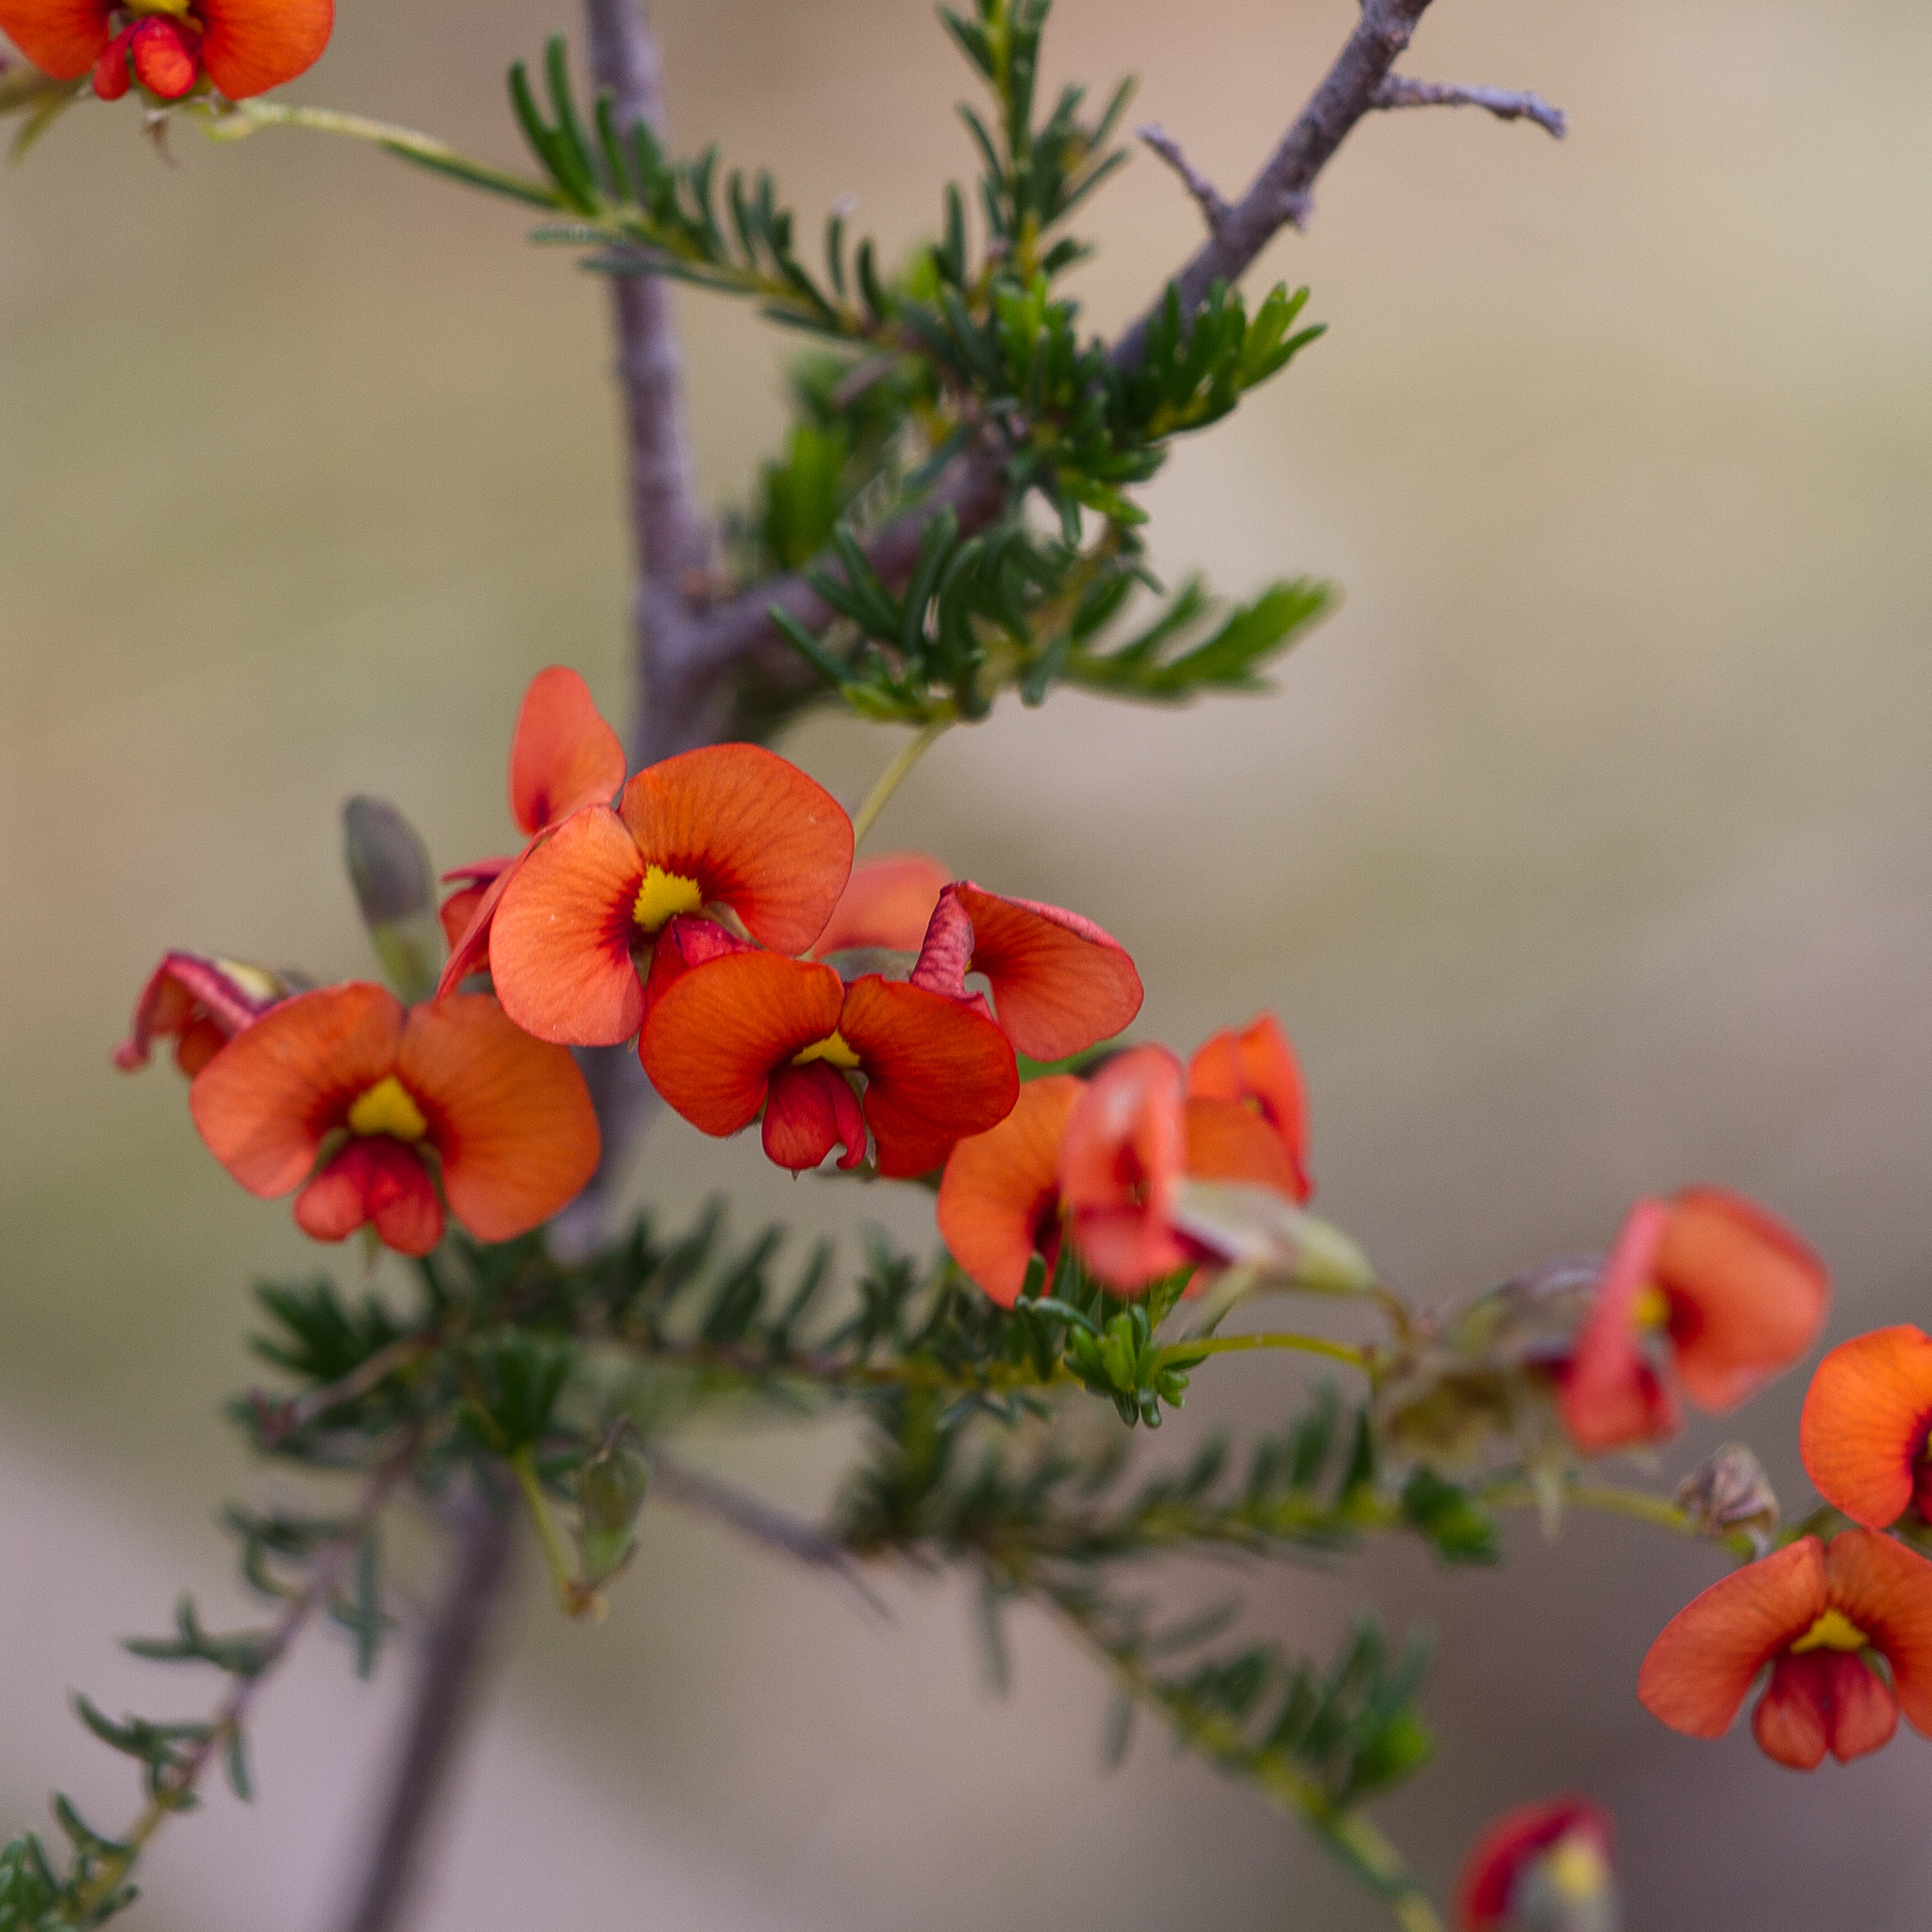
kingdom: Plantae
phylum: Tracheophyta
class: Magnoliopsida
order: Fabales
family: Fabaceae
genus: Dillwynia
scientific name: Dillwynia hispida
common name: Red parrot-pea
